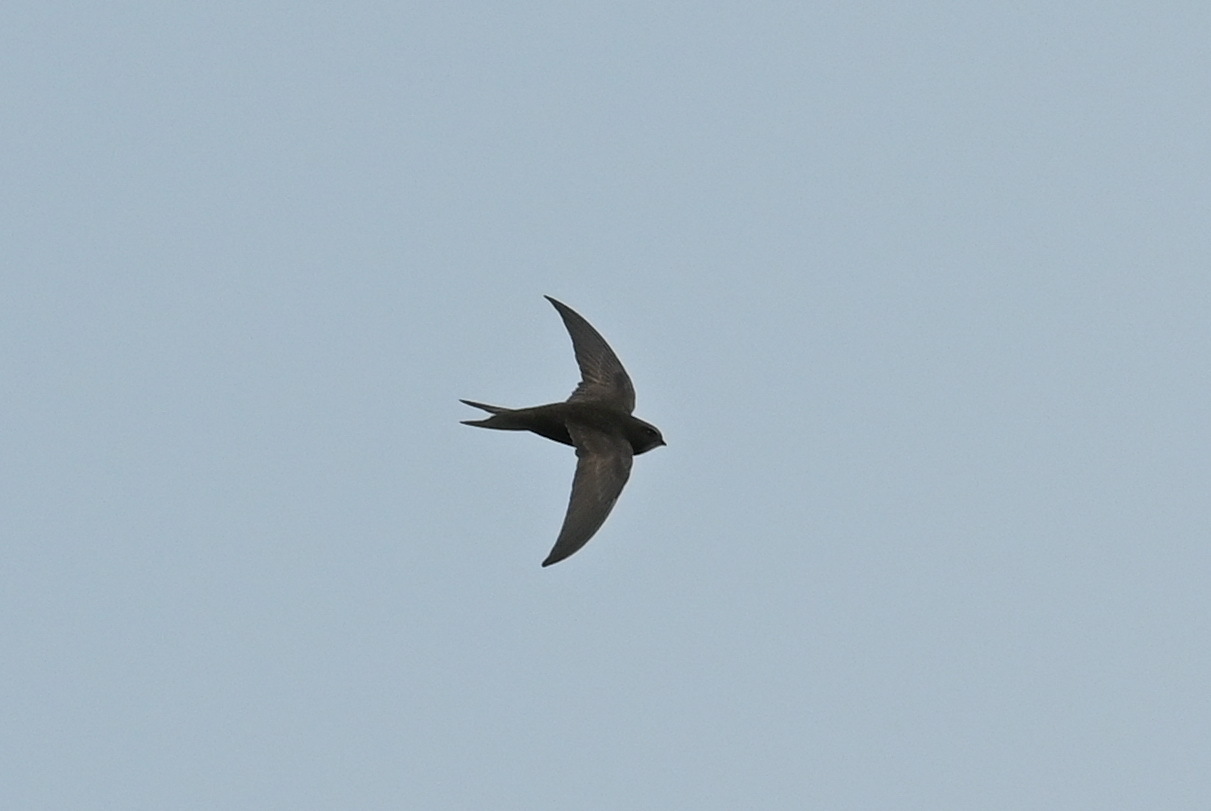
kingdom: Animalia
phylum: Chordata
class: Aves
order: Apodiformes
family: Apodidae
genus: Apus
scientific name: Apus apus
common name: Common swift
